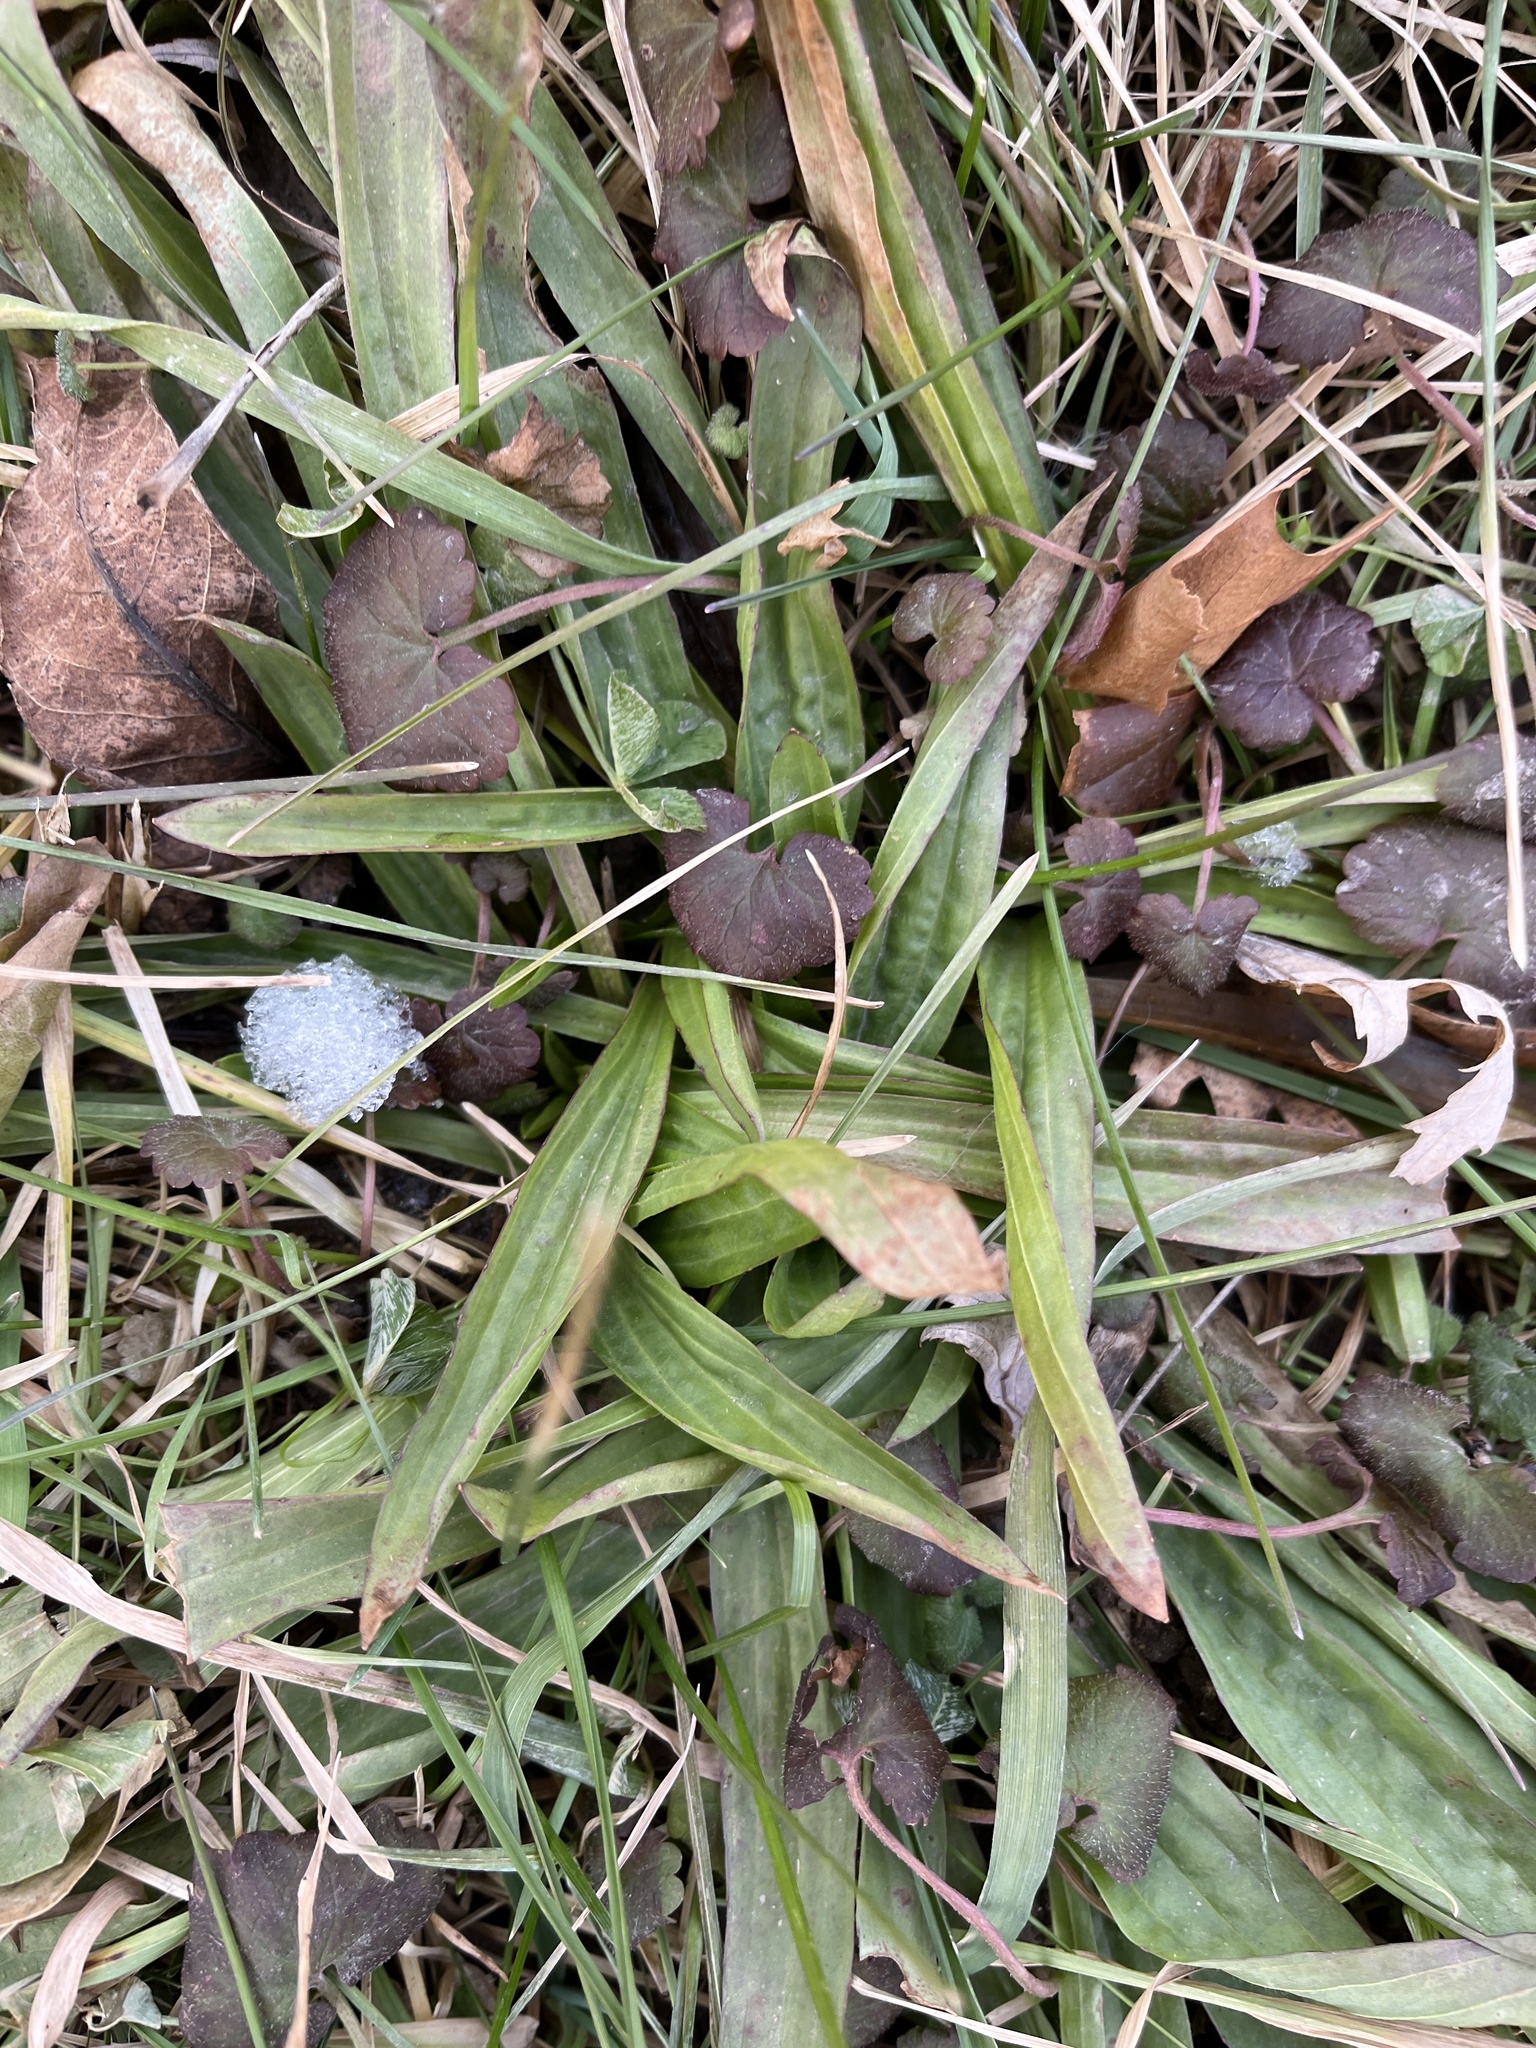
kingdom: Plantae
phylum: Tracheophyta
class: Magnoliopsida
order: Lamiales
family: Plantaginaceae
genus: Plantago
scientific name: Plantago lanceolata
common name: Ribwort plantain
